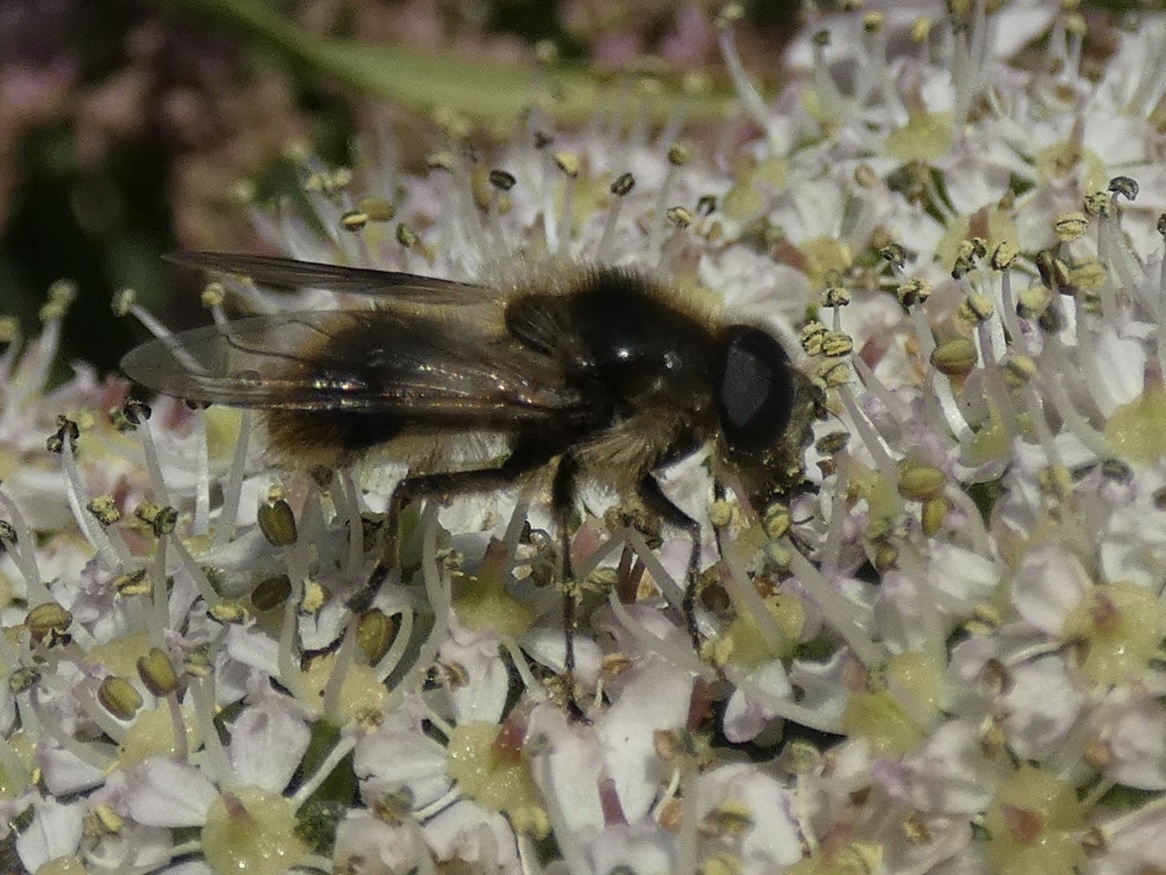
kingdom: Animalia
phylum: Arthropoda
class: Insecta
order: Diptera
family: Syrphidae
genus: Cheilosia
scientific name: Cheilosia illustrata
